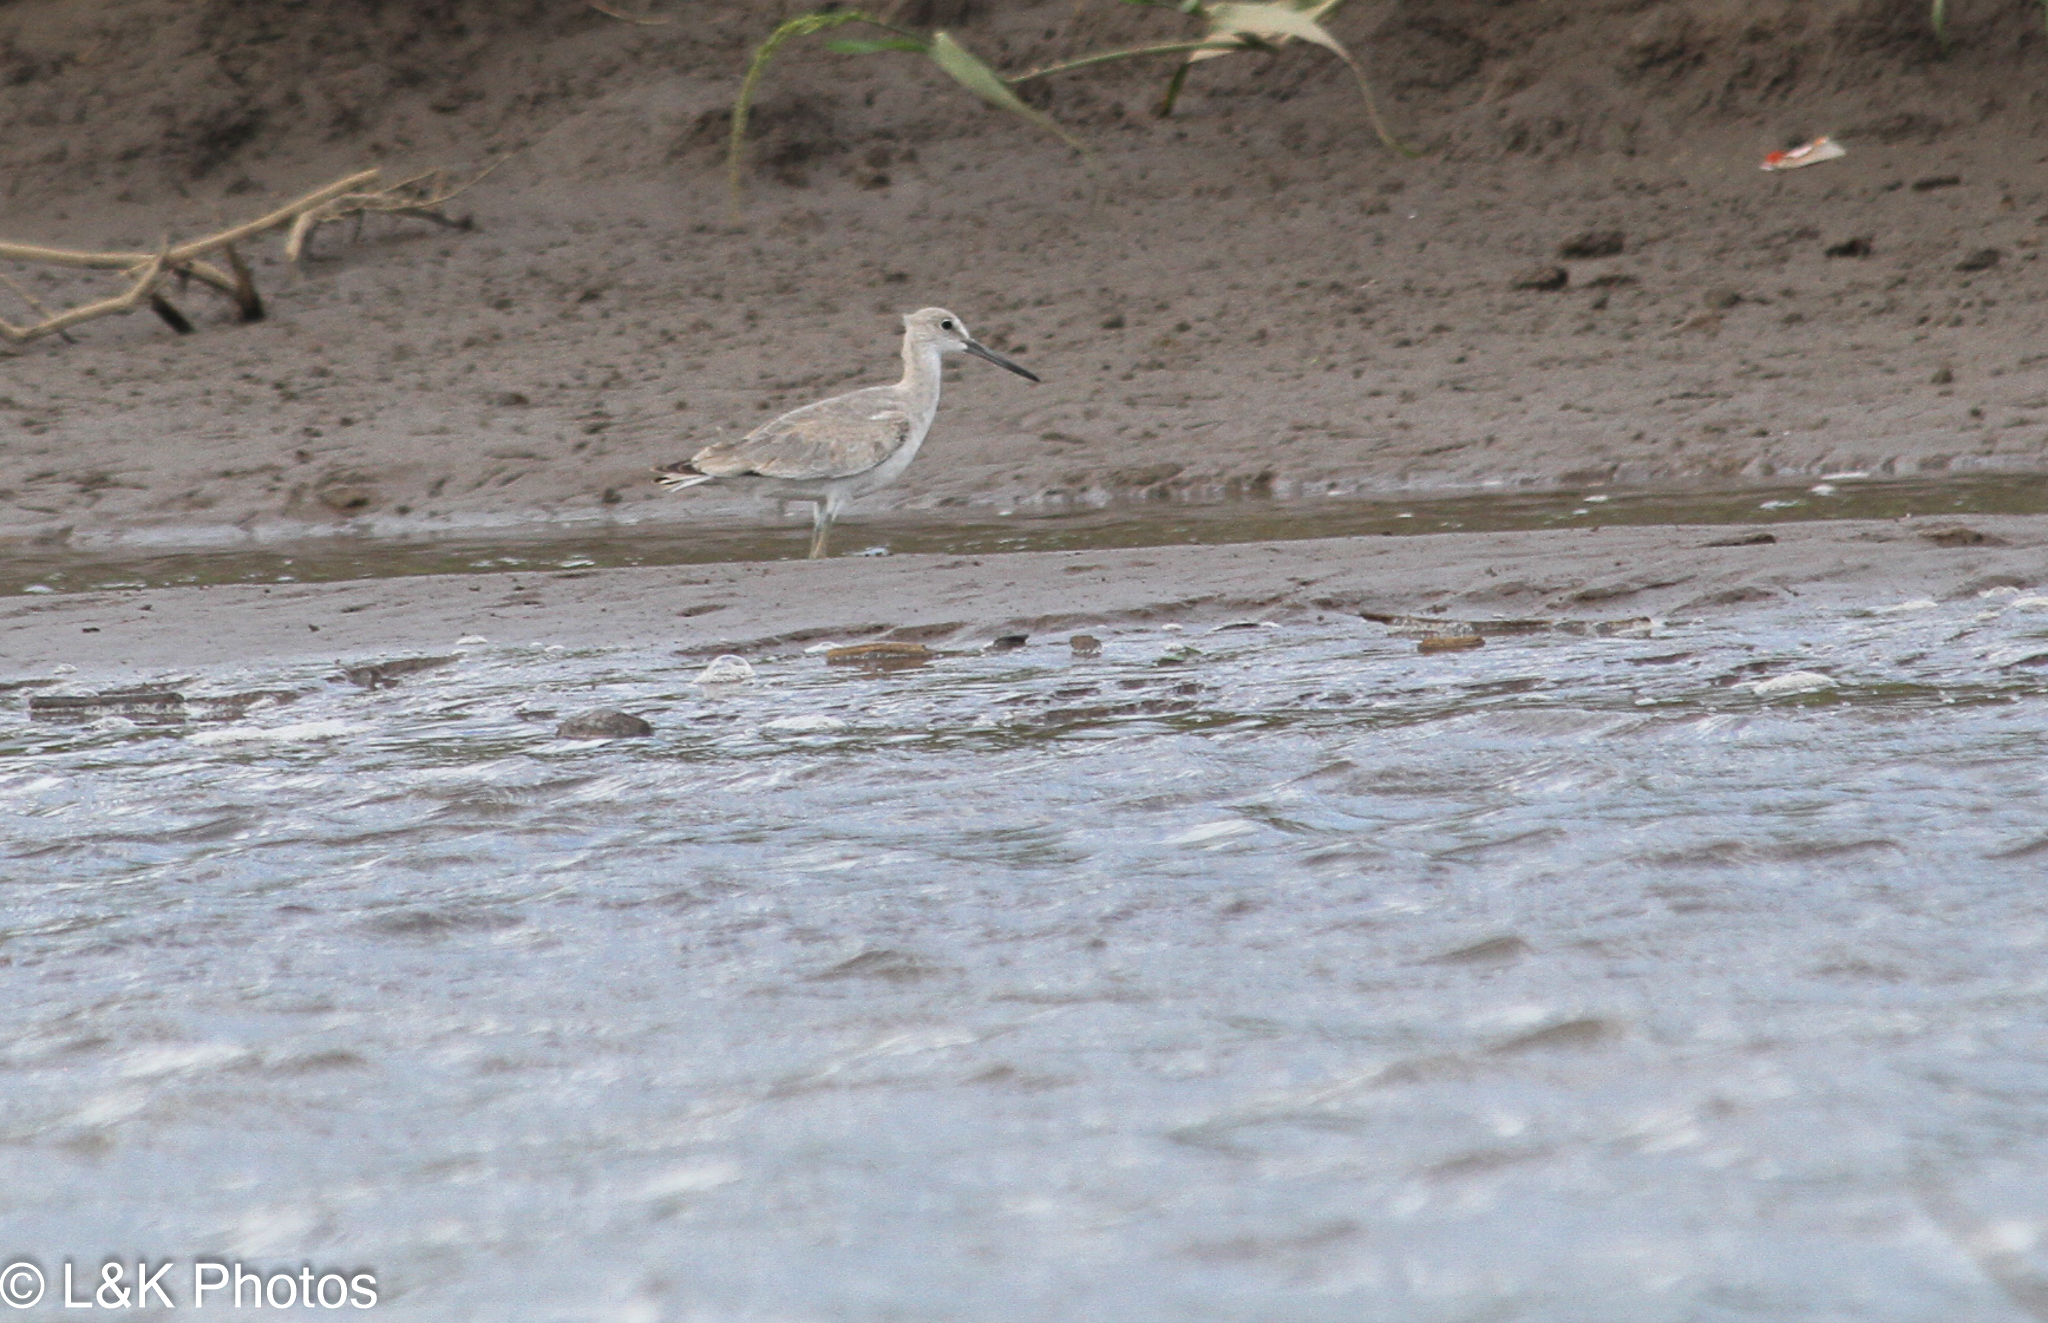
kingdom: Animalia
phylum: Chordata
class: Aves
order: Charadriiformes
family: Scolopacidae
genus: Tringa
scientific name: Tringa semipalmata
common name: Willet
